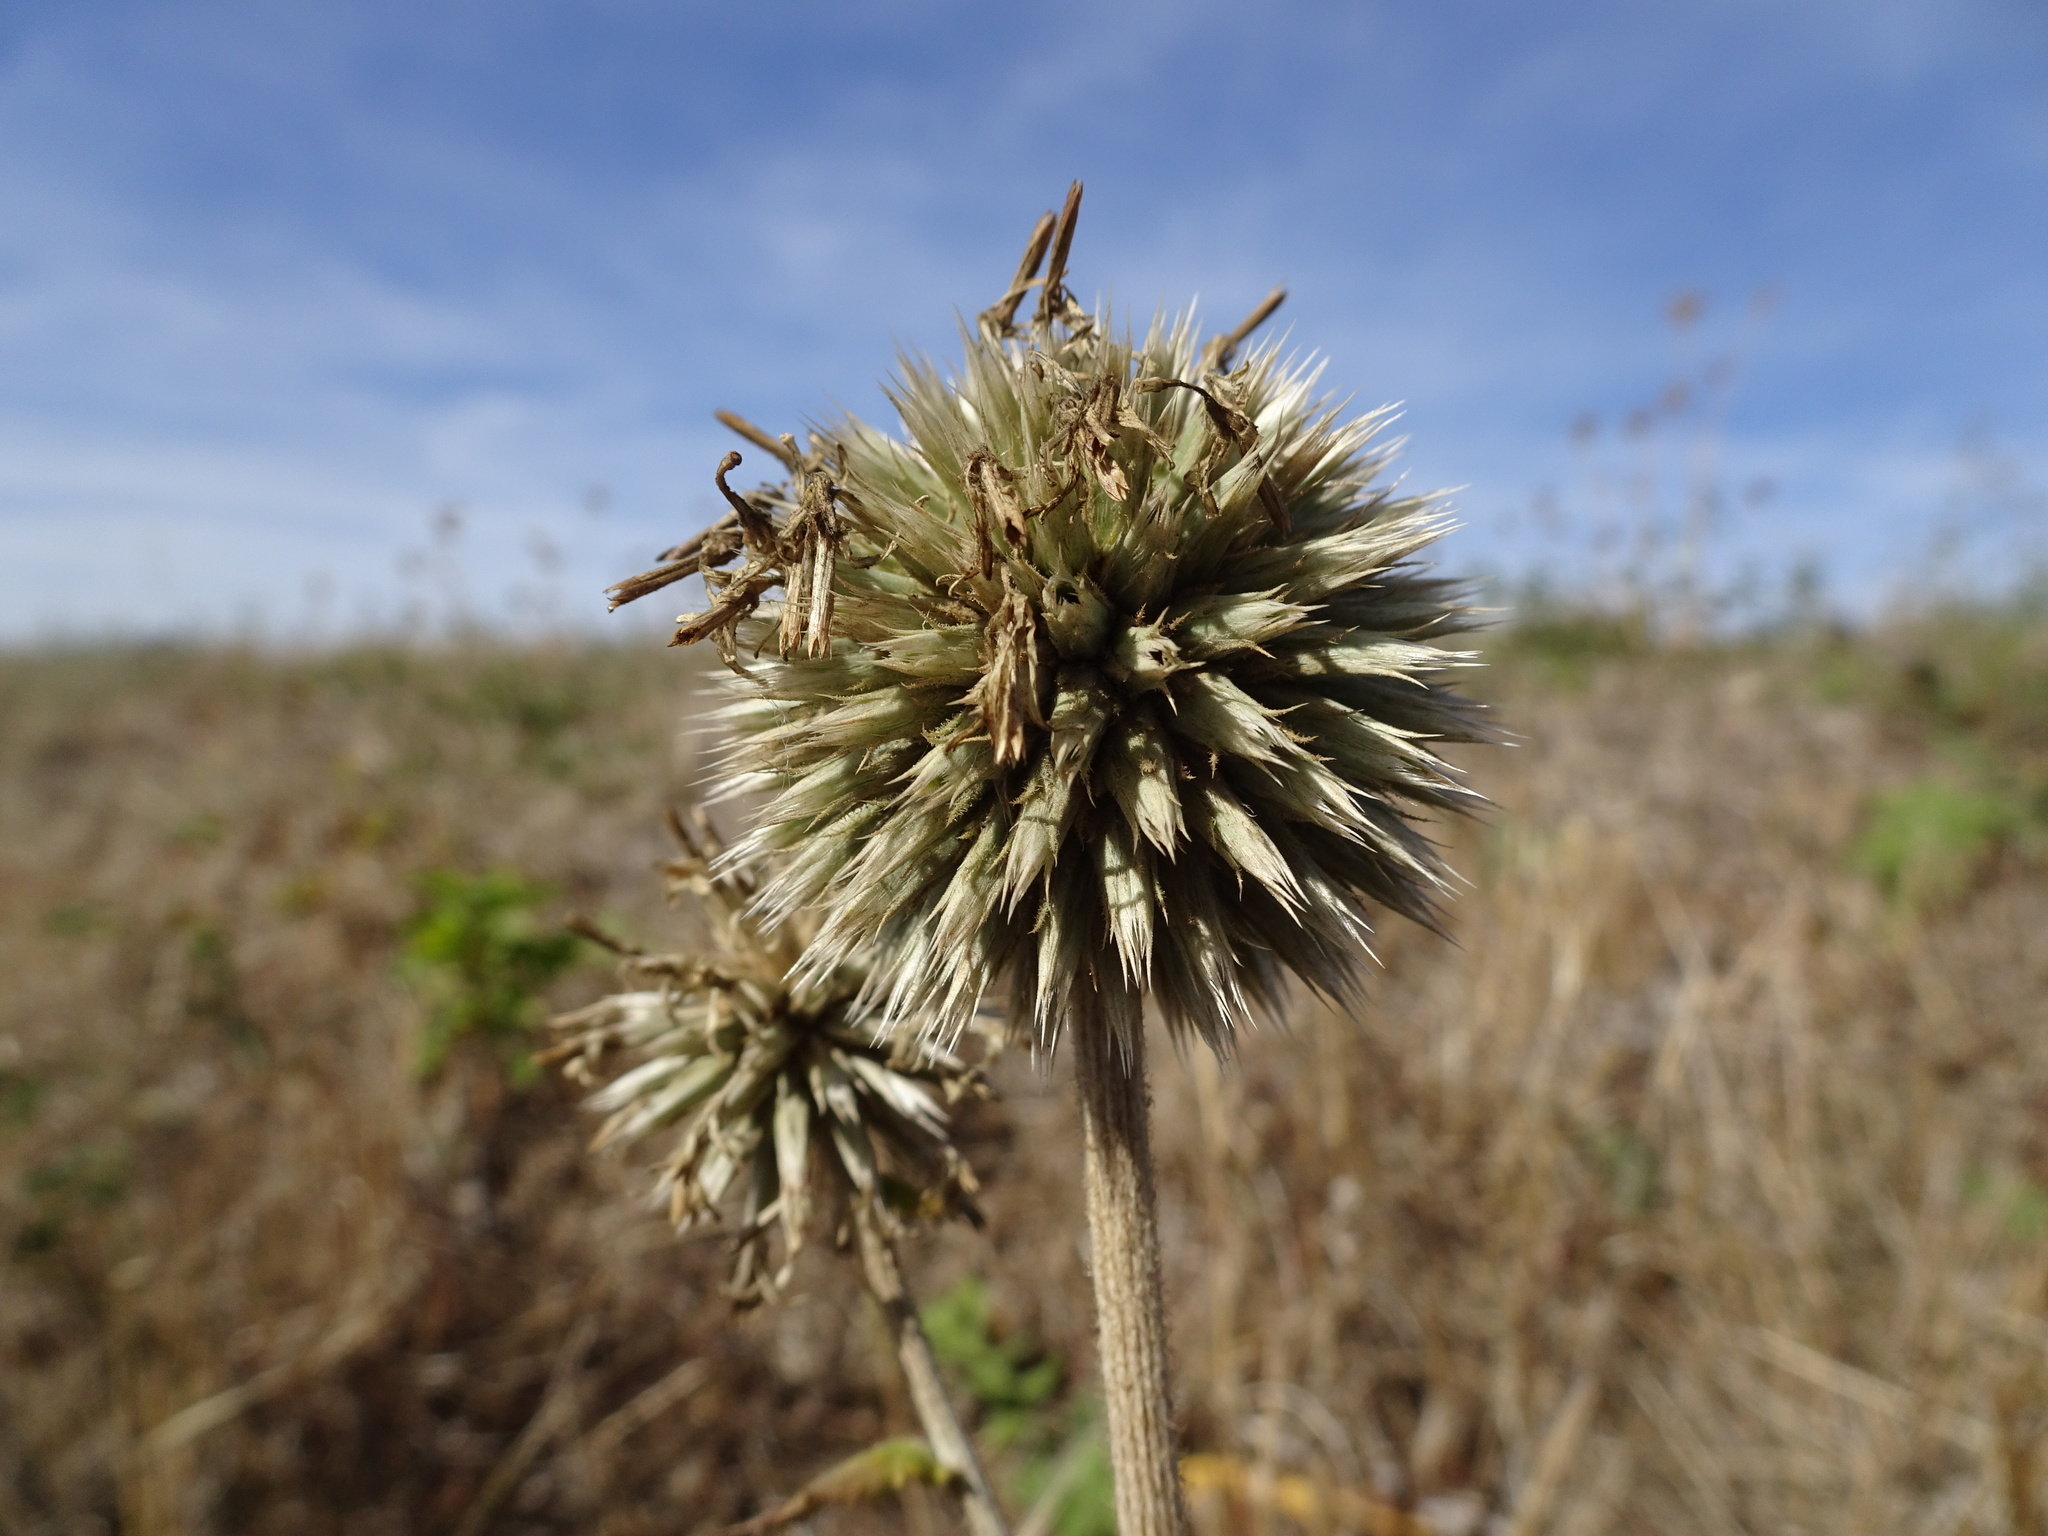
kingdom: Plantae
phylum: Tracheophyta
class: Magnoliopsida
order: Asterales
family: Asteraceae
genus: Echinops
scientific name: Echinops sphaerocephalus
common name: Glandular globe-thistle
